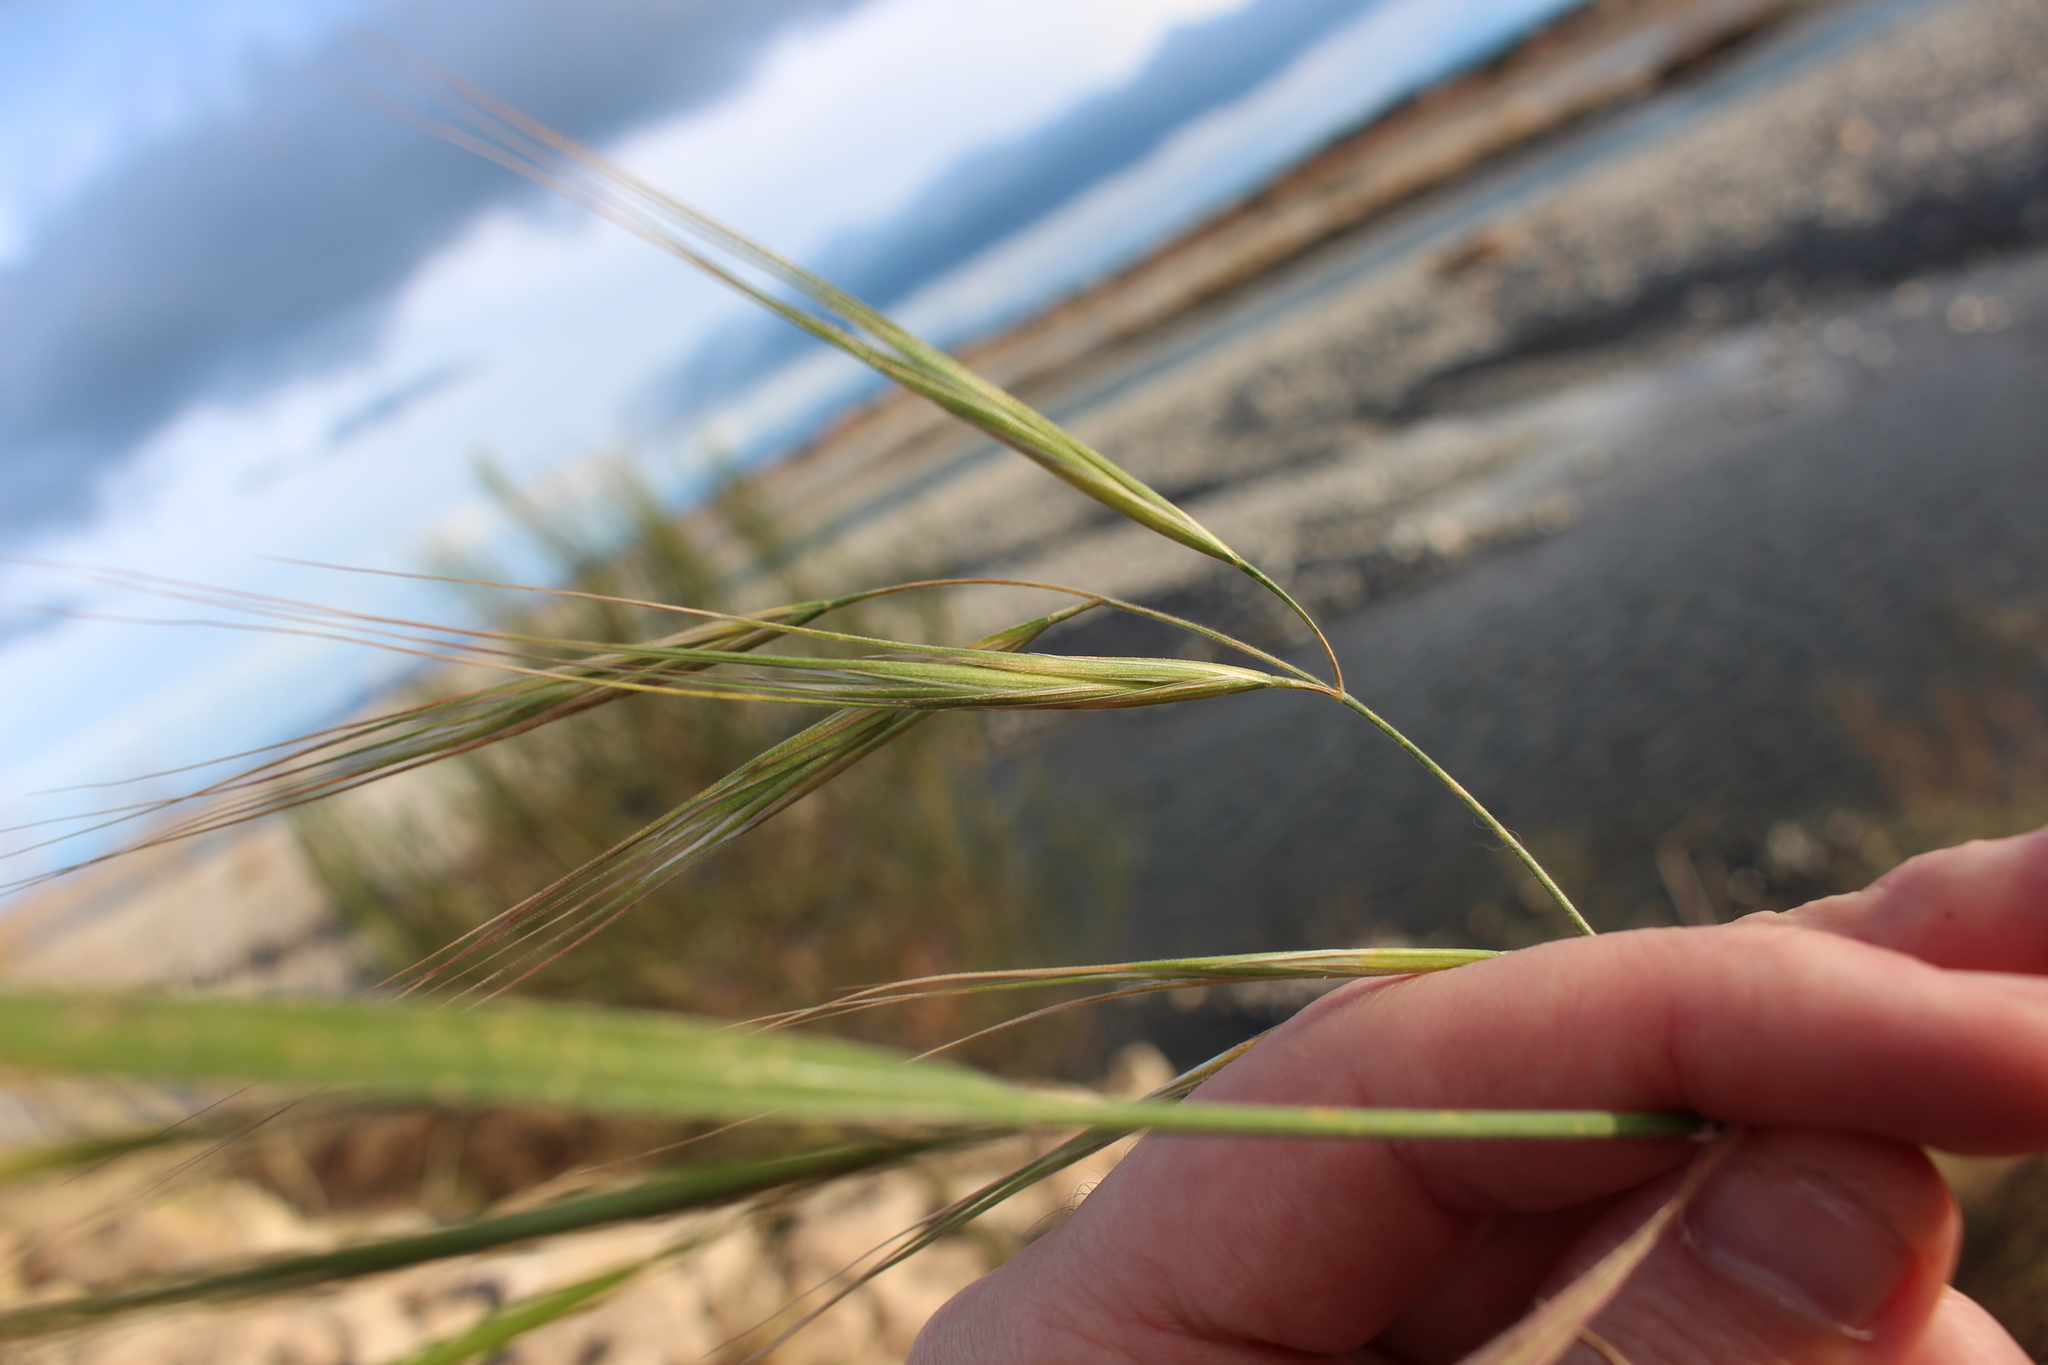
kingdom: Plantae
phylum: Tracheophyta
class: Liliopsida
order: Poales
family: Poaceae
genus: Bromus
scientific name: Bromus diandrus
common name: Ripgut brome
